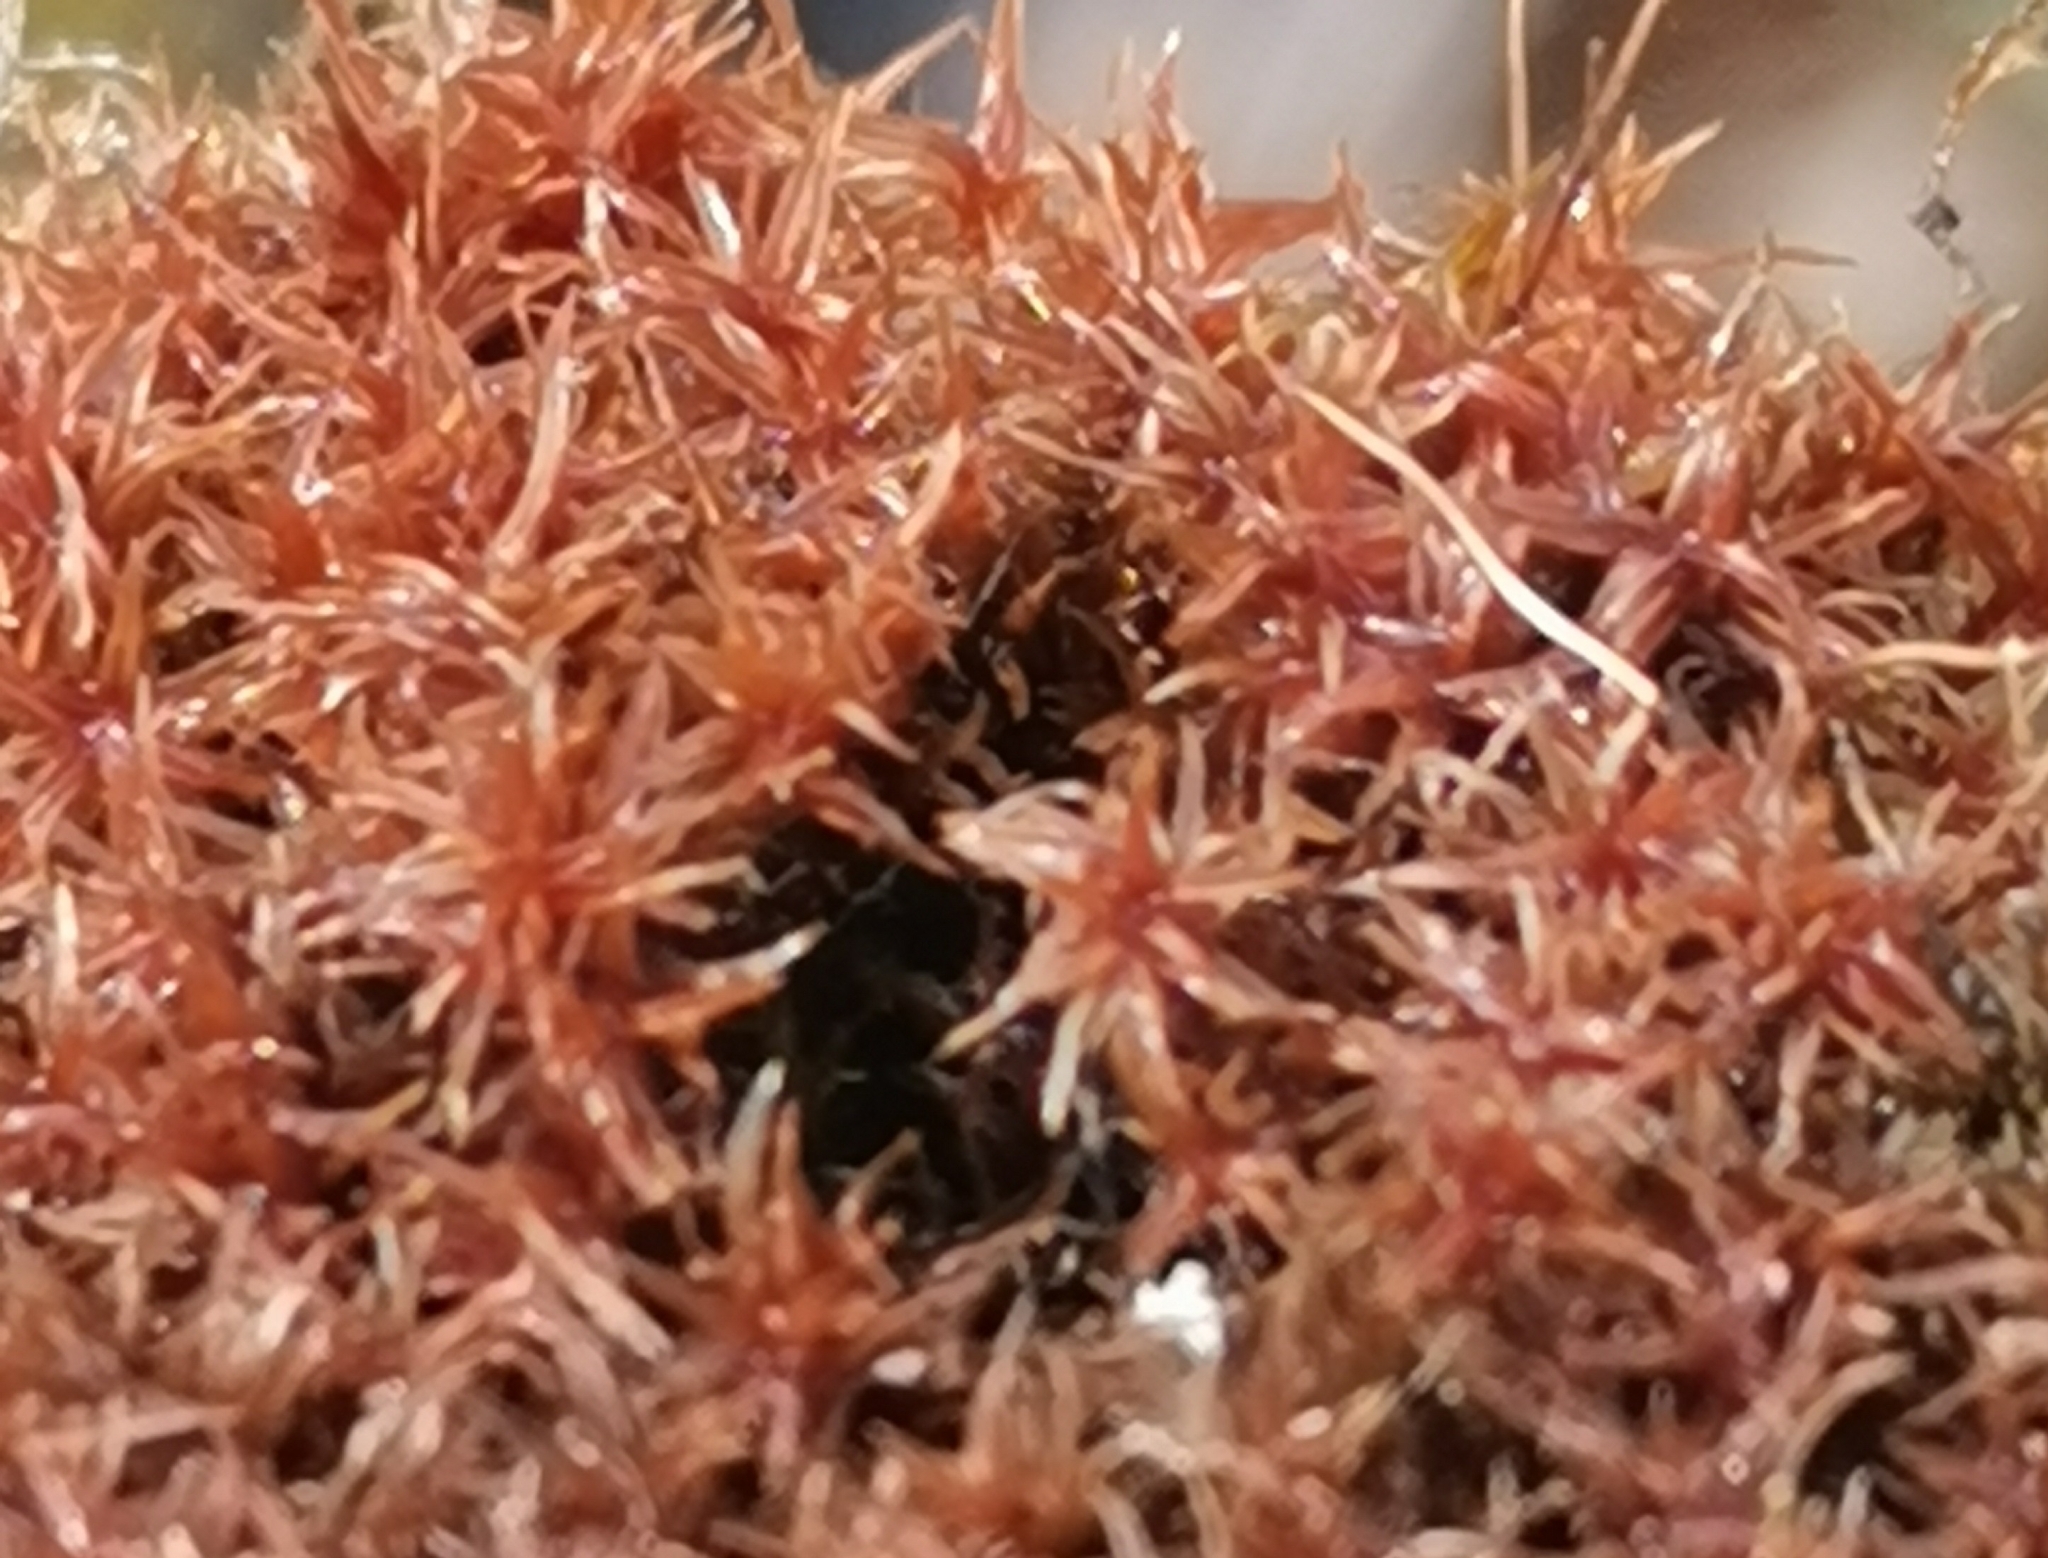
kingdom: Plantae
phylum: Bryophyta
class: Bryopsida
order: Dicranales
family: Ditrichaceae
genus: Ceratodon
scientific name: Ceratodon purpureus
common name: Redshank
